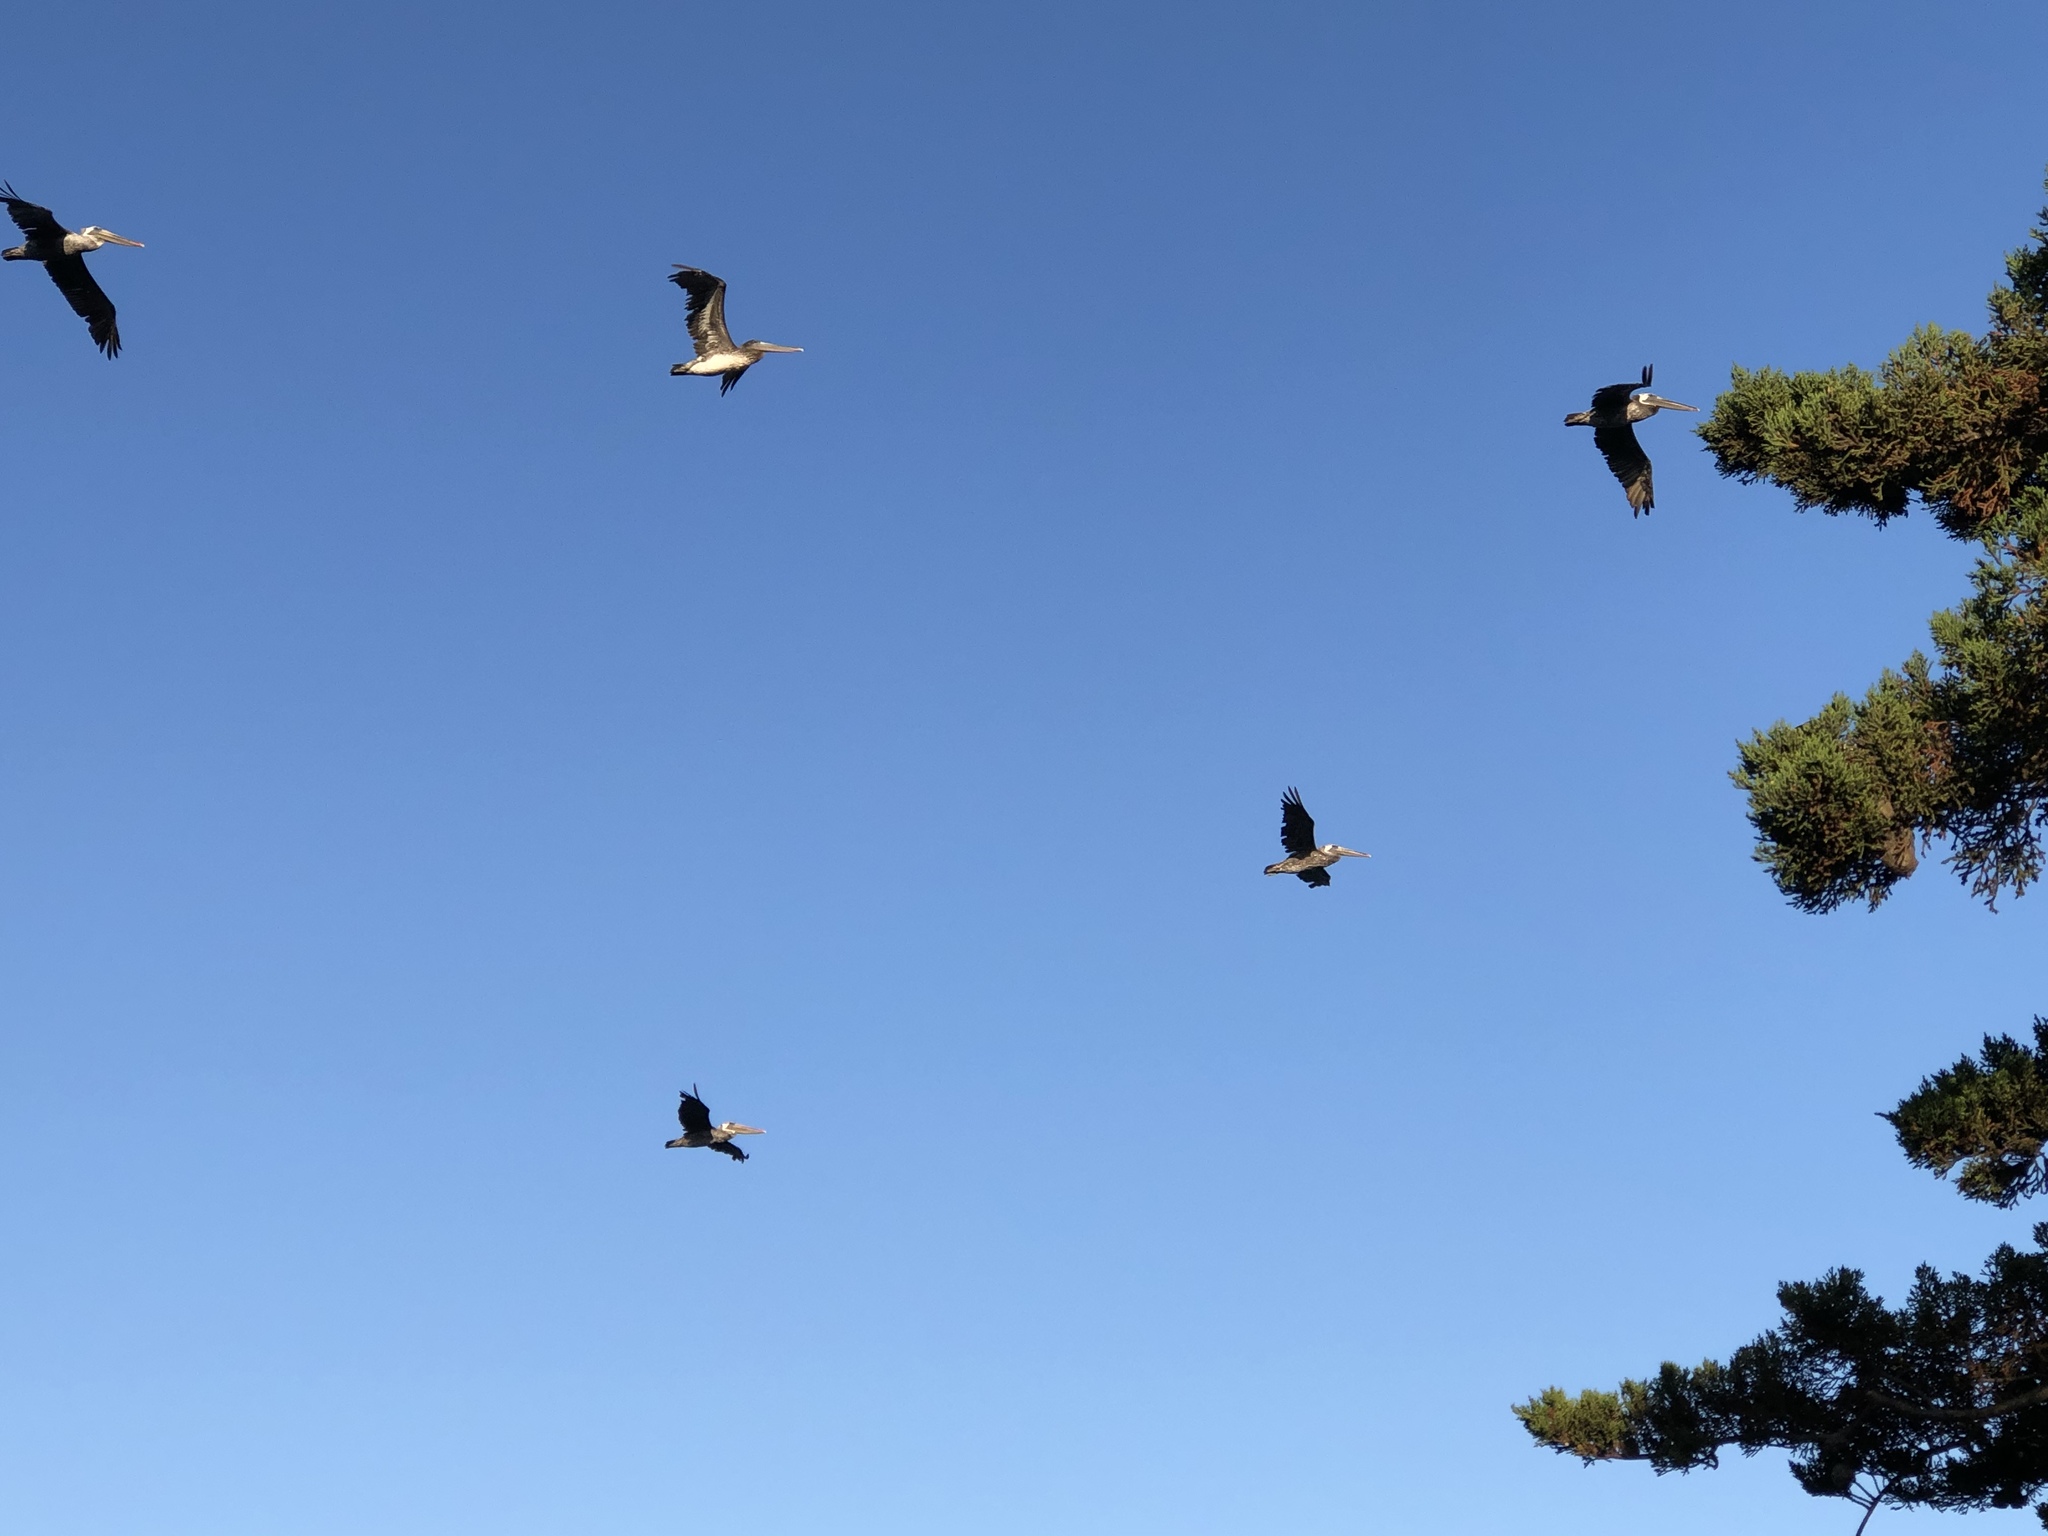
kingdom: Animalia
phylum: Chordata
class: Aves
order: Pelecaniformes
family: Pelecanidae
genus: Pelecanus
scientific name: Pelecanus occidentalis
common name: Brown pelican
